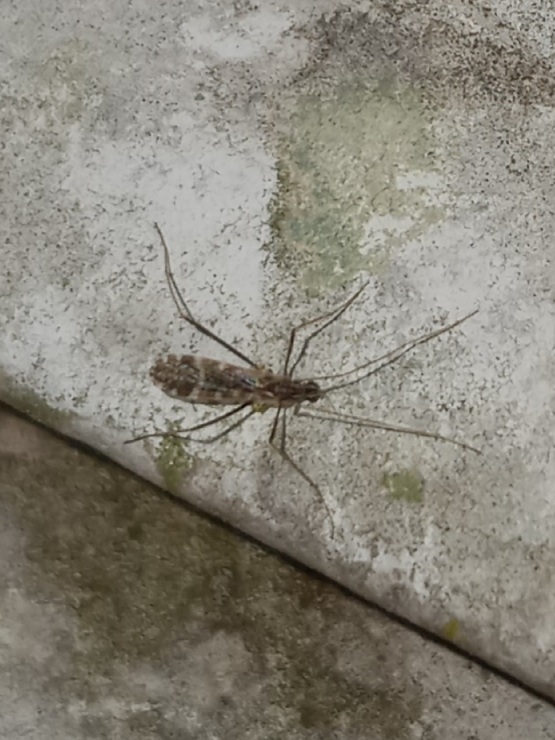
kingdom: Animalia
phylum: Arthropoda
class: Insecta
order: Diptera
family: Limoniidae
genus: Erioptera
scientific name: Erioptera caliptera
